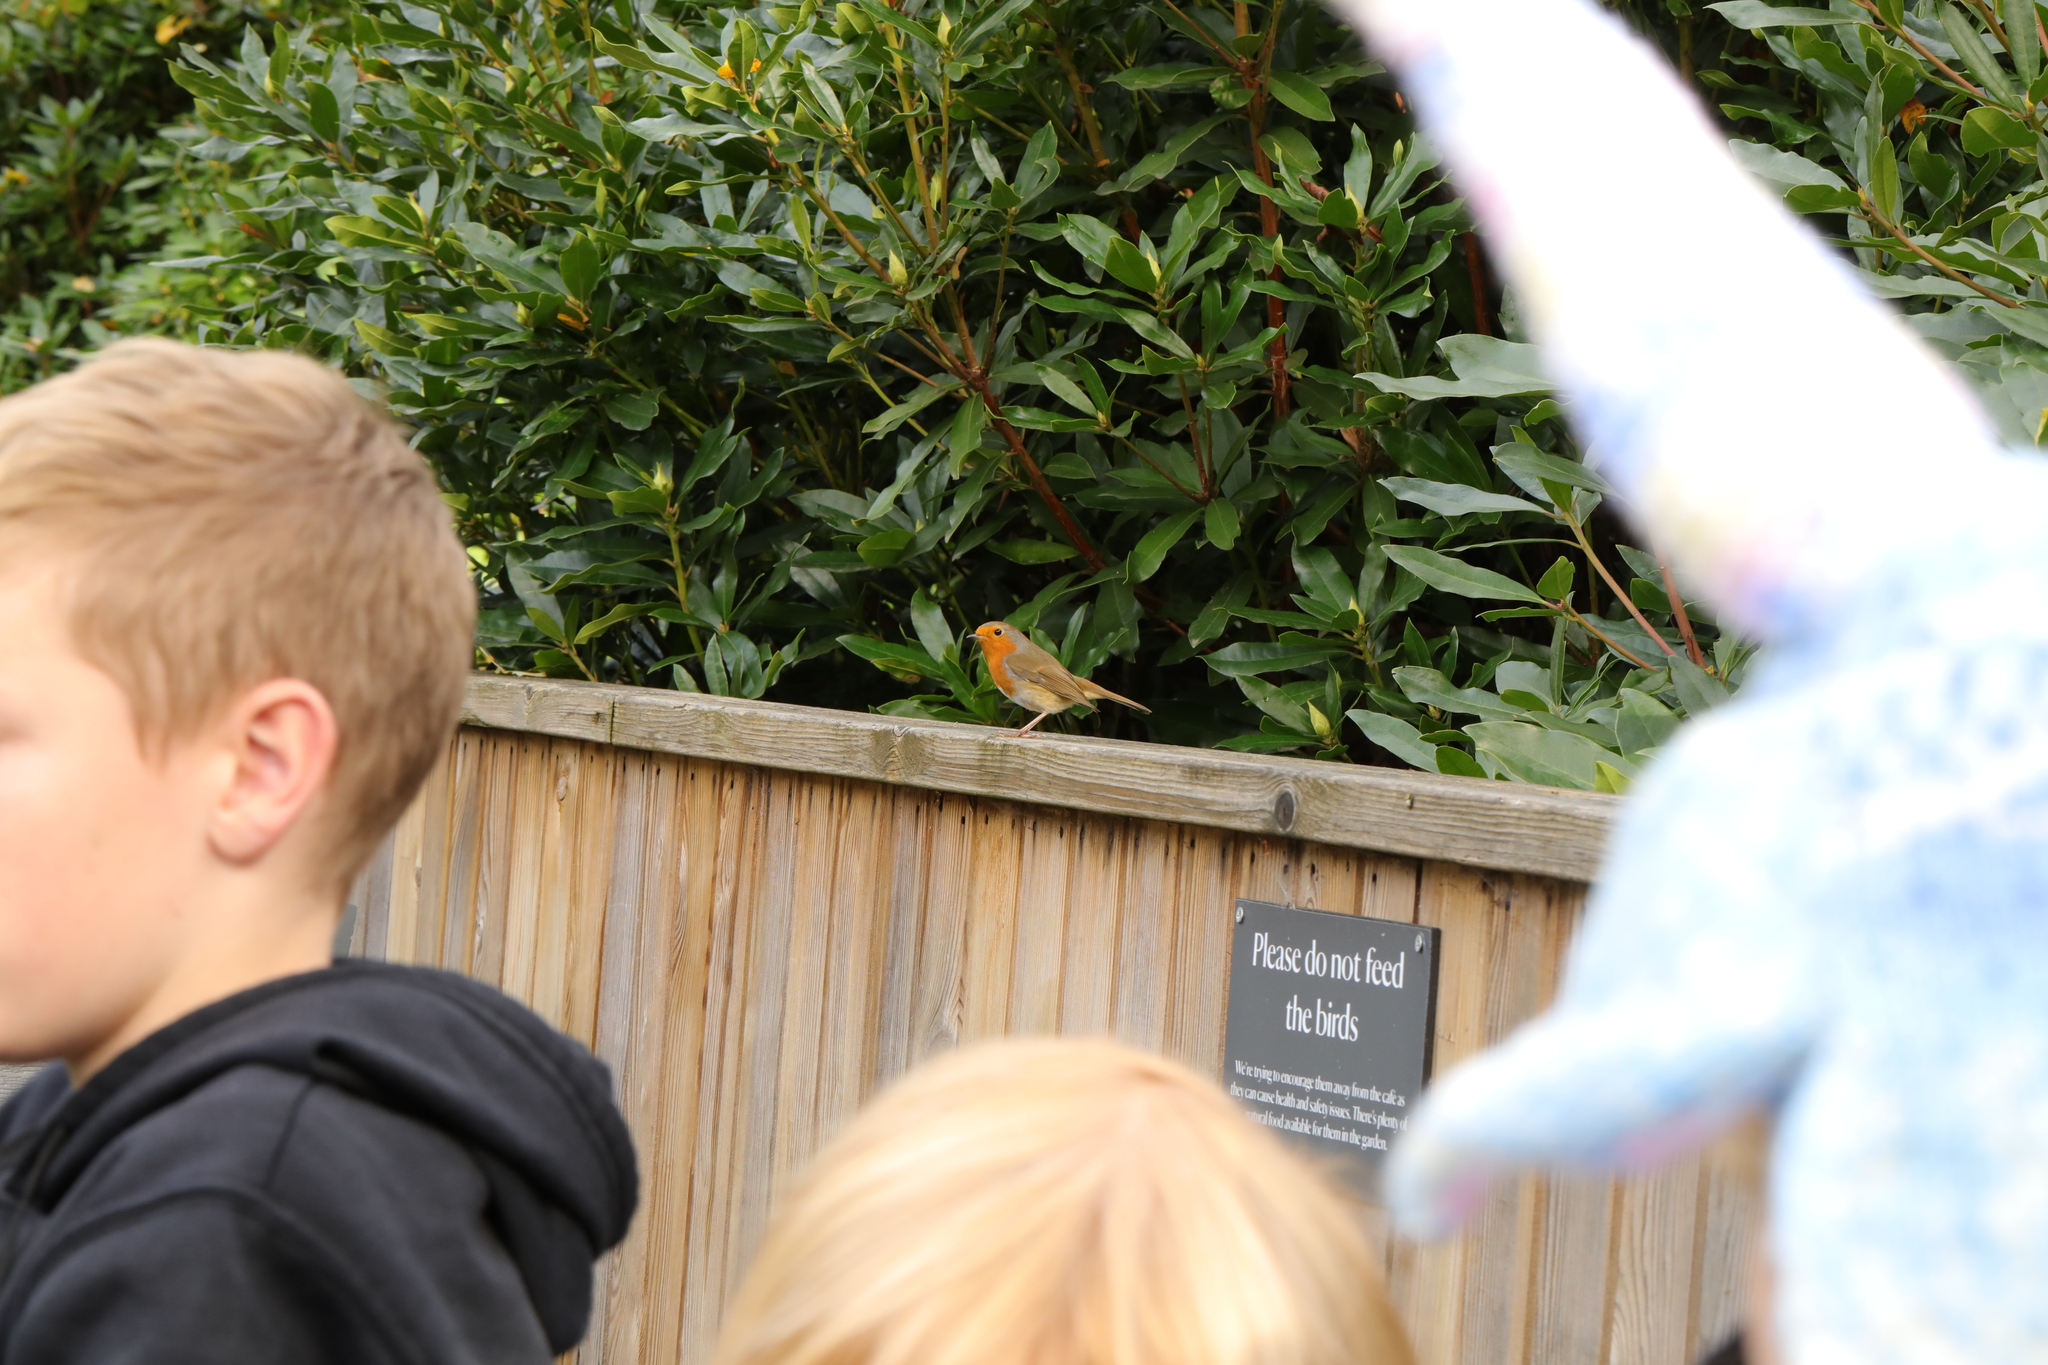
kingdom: Animalia
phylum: Chordata
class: Aves
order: Passeriformes
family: Muscicapidae
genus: Erithacus
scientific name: Erithacus rubecula
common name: European robin
